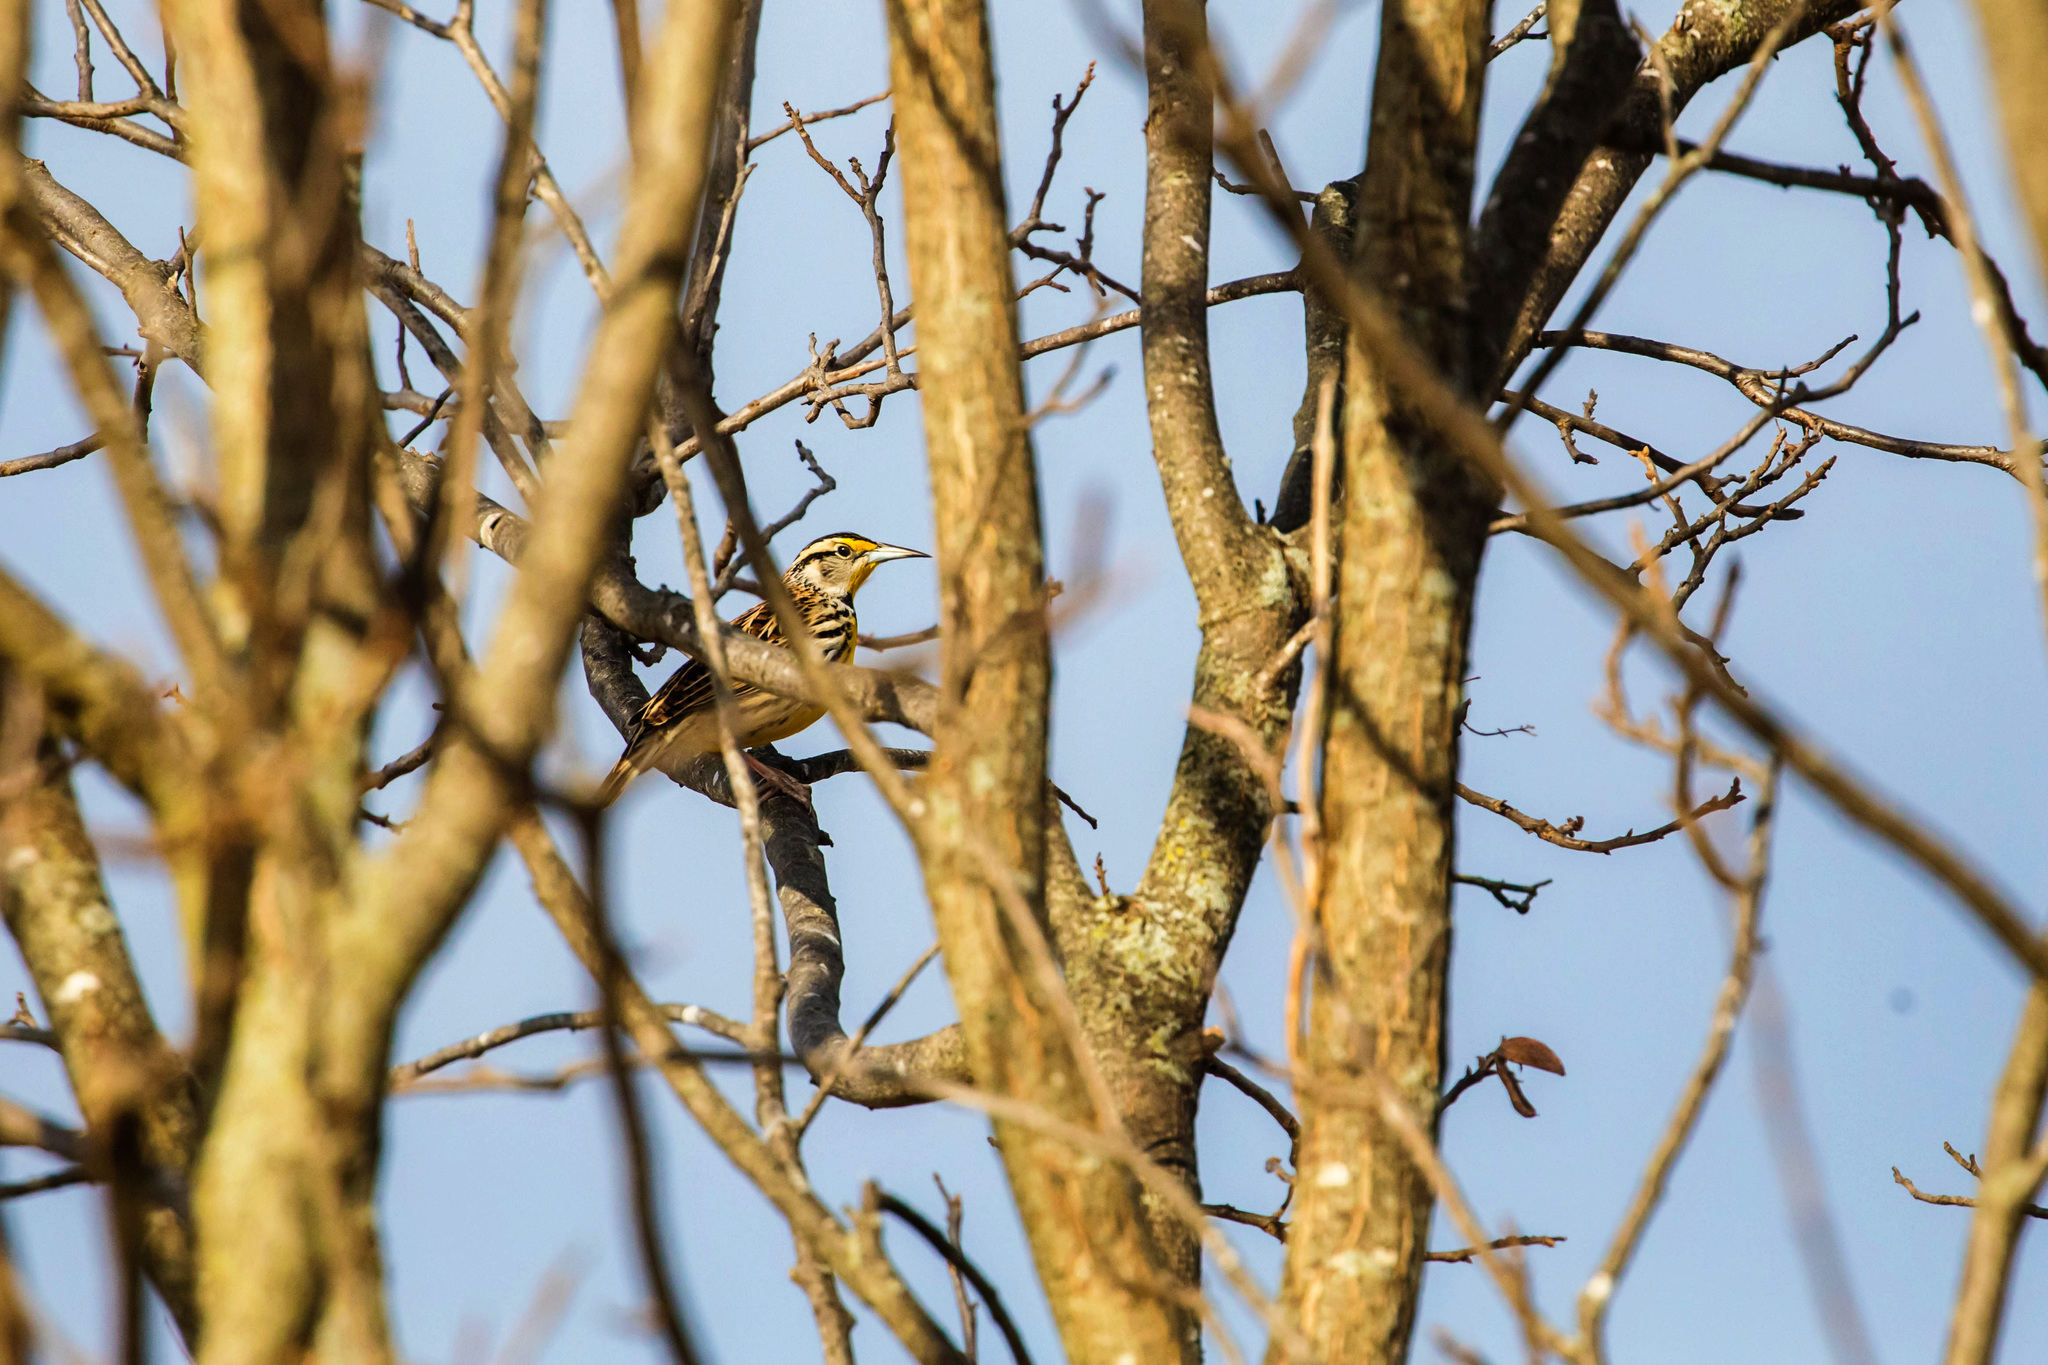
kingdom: Animalia
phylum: Chordata
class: Aves
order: Passeriformes
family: Icteridae
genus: Sturnella
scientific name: Sturnella magna
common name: Eastern meadowlark
